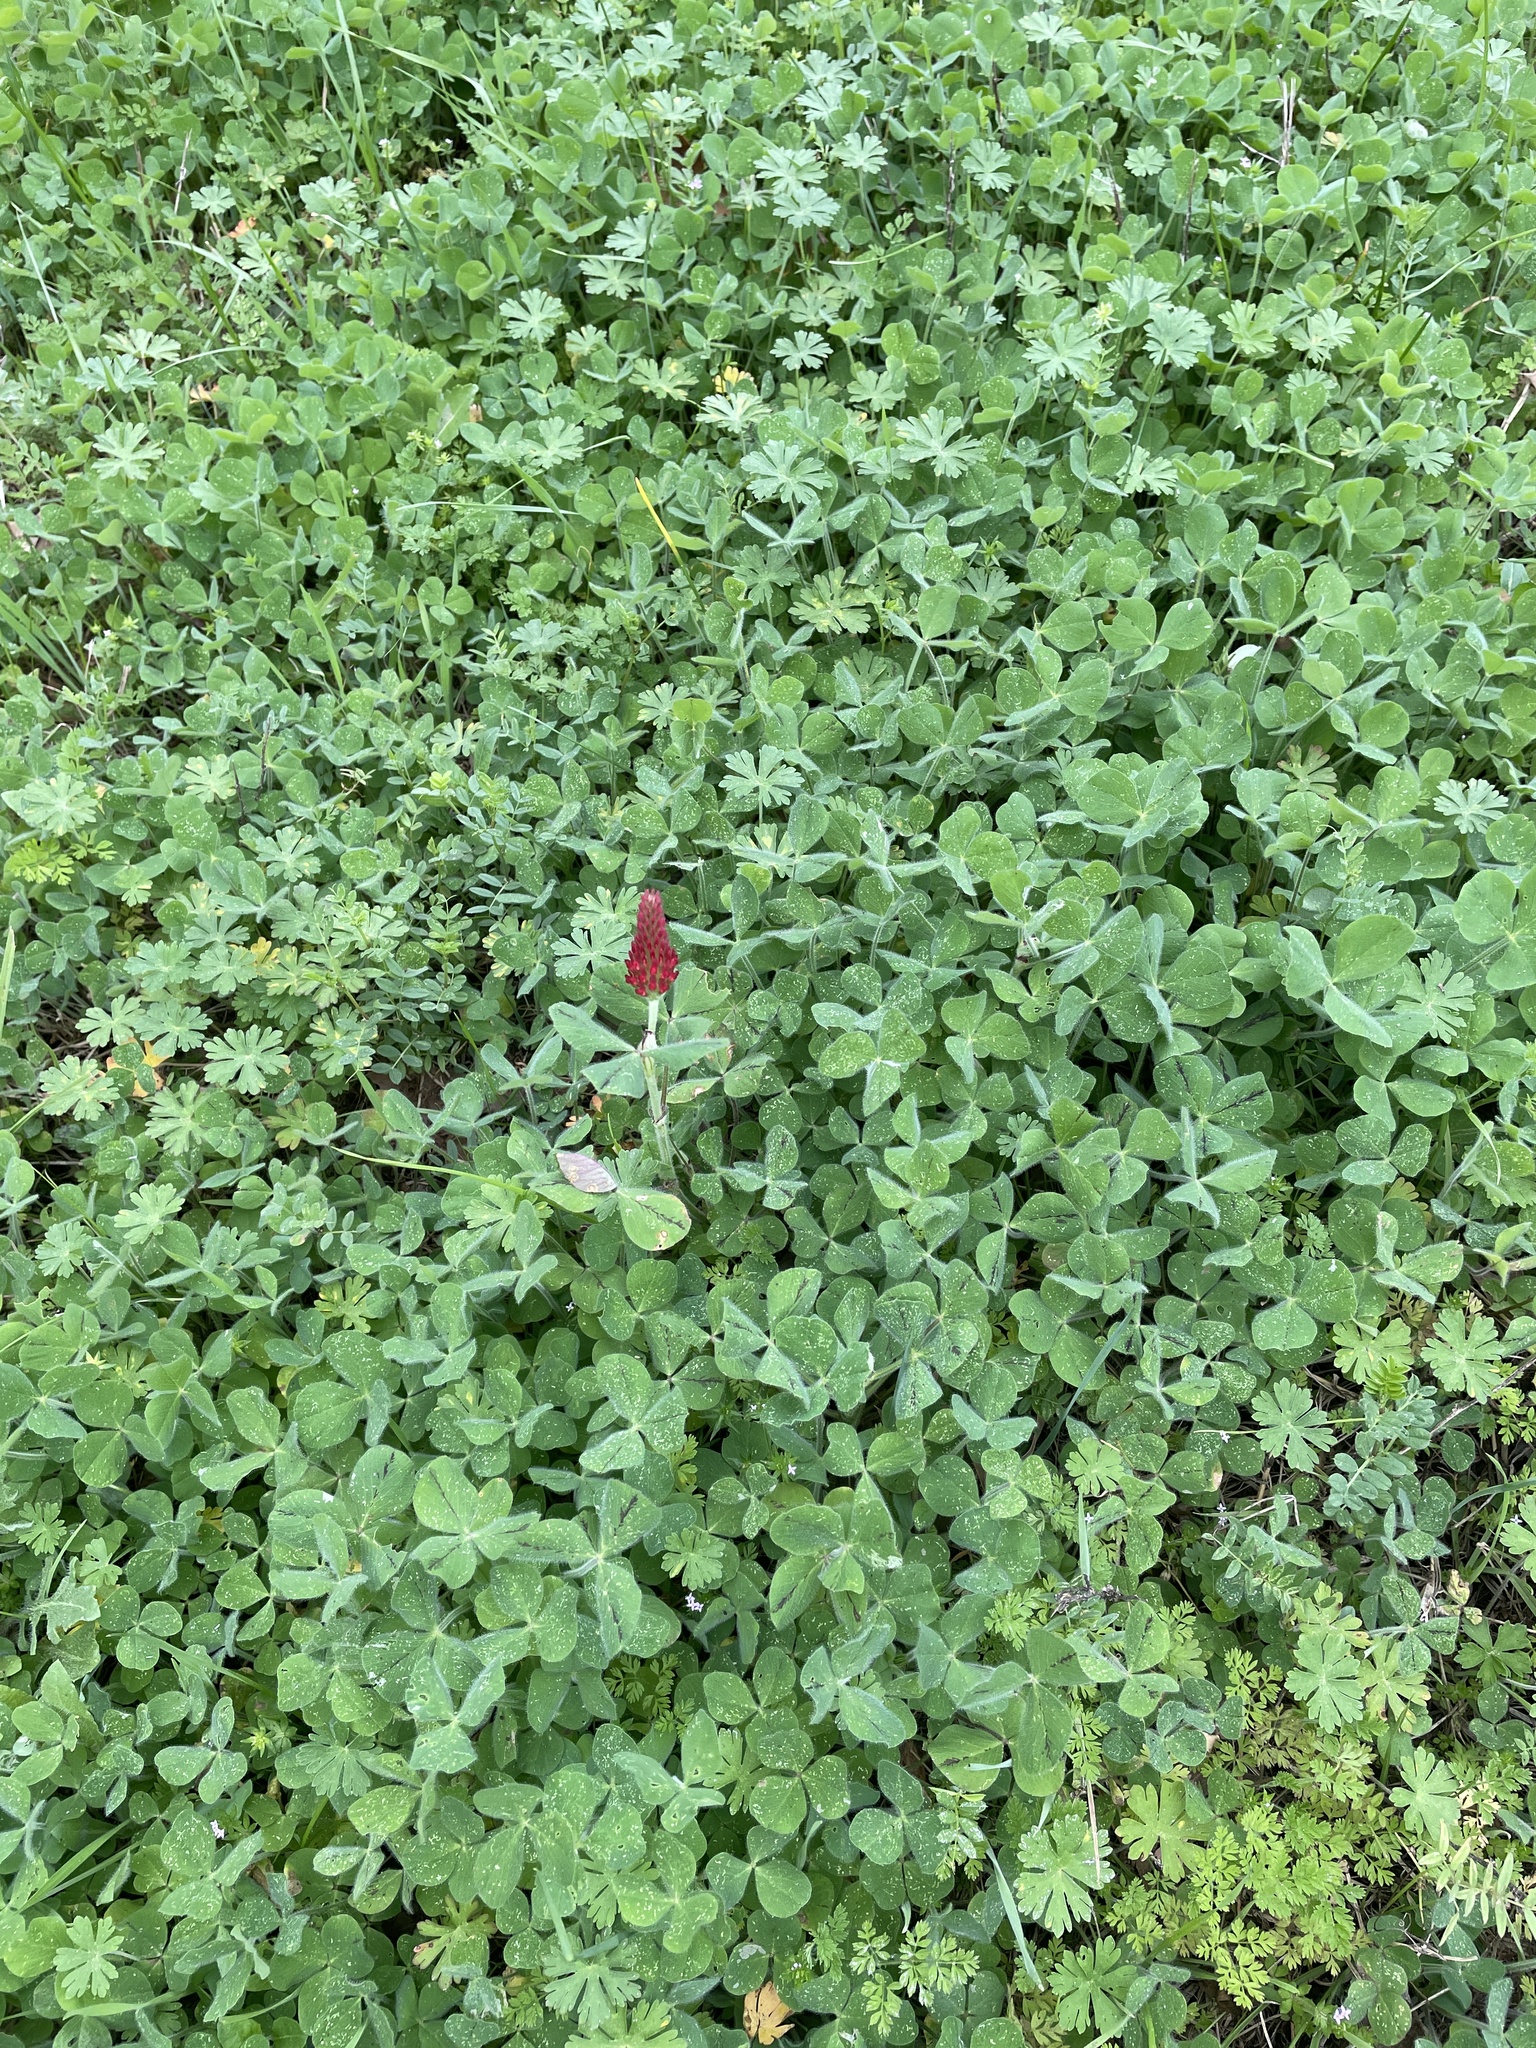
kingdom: Plantae
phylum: Tracheophyta
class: Magnoliopsida
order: Fabales
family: Fabaceae
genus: Trifolium
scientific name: Trifolium incarnatum
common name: Crimson clover
